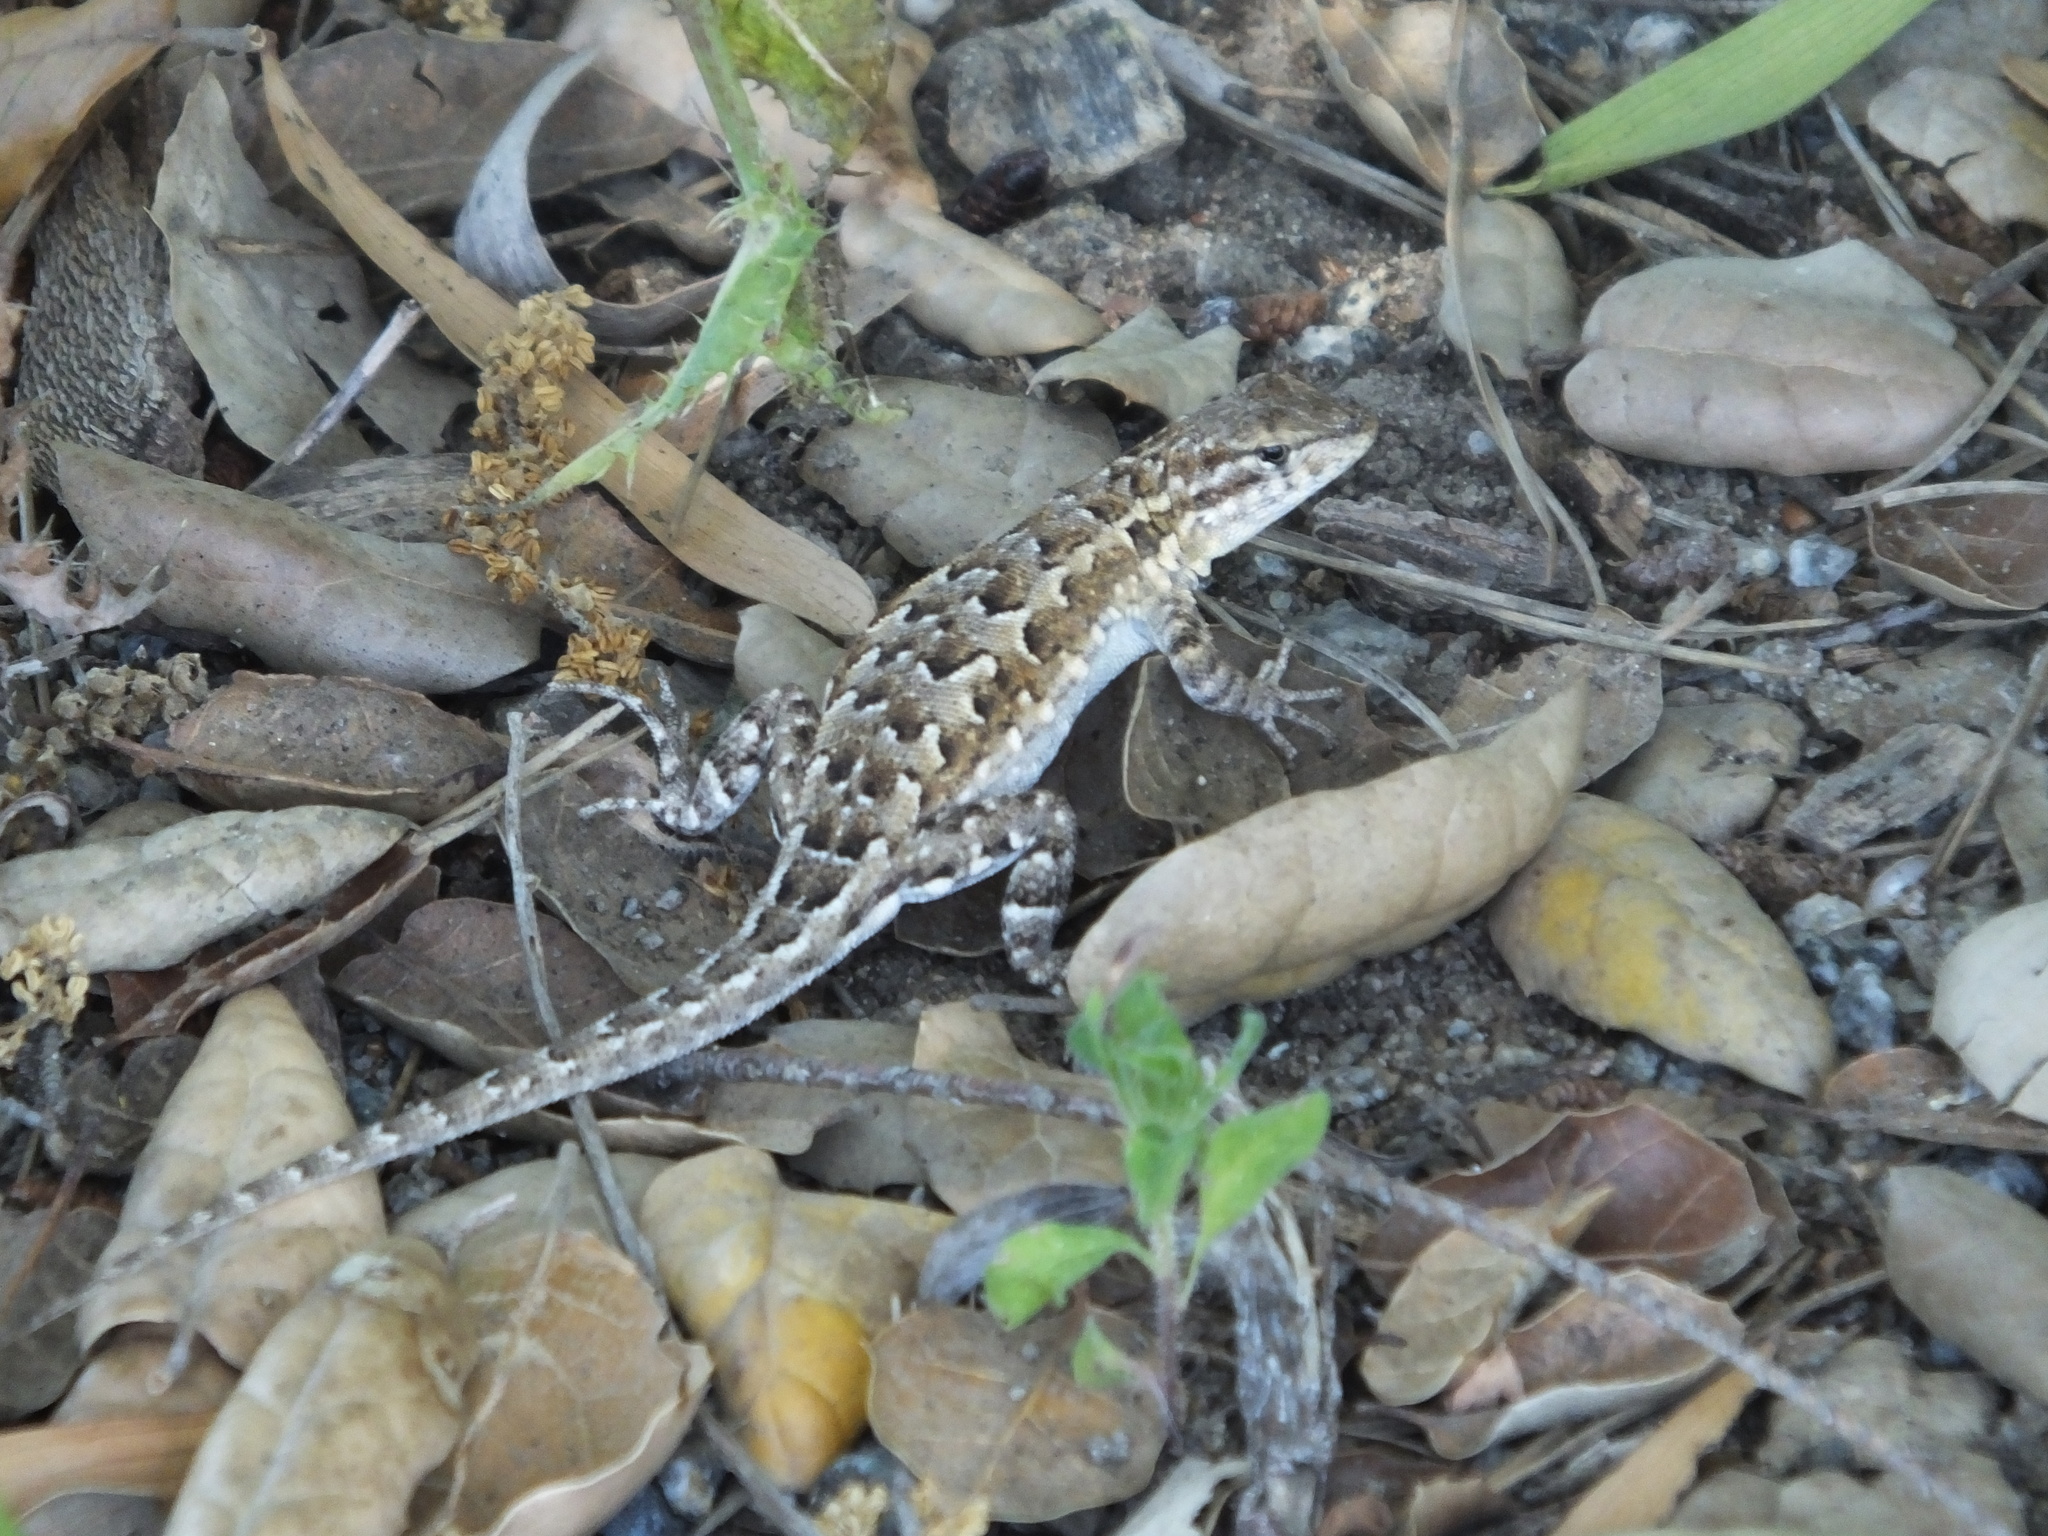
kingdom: Animalia
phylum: Chordata
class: Squamata
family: Phrynosomatidae
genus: Uta
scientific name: Uta stansburiana
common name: Side-blotched lizard
